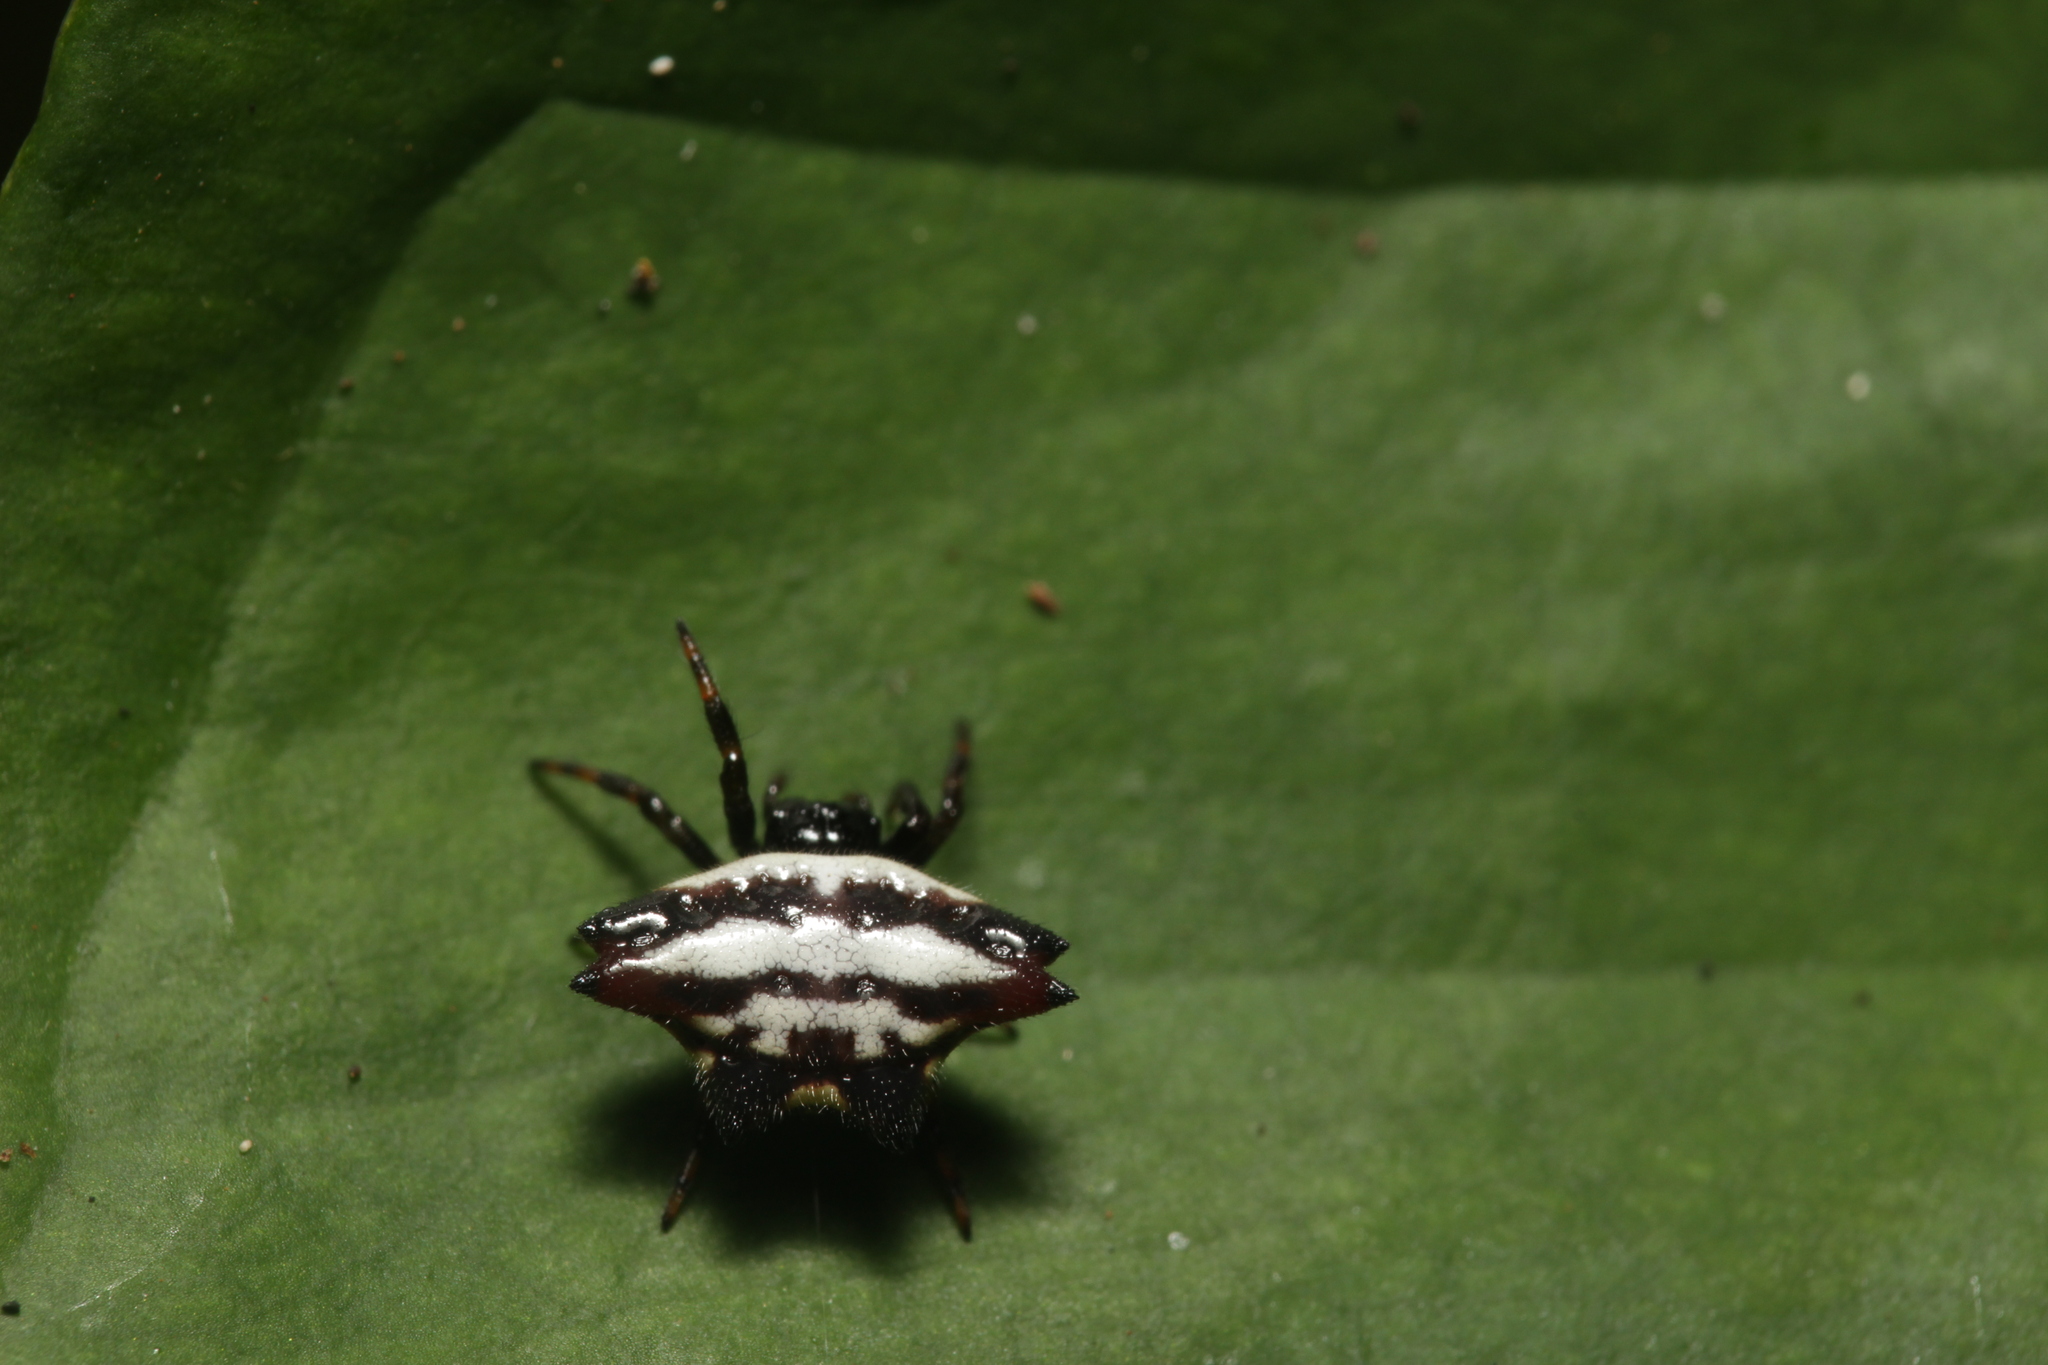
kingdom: Animalia
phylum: Arthropoda
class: Arachnida
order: Araneae
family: Araneidae
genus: Gasteracantha
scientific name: Gasteracantha geminata
